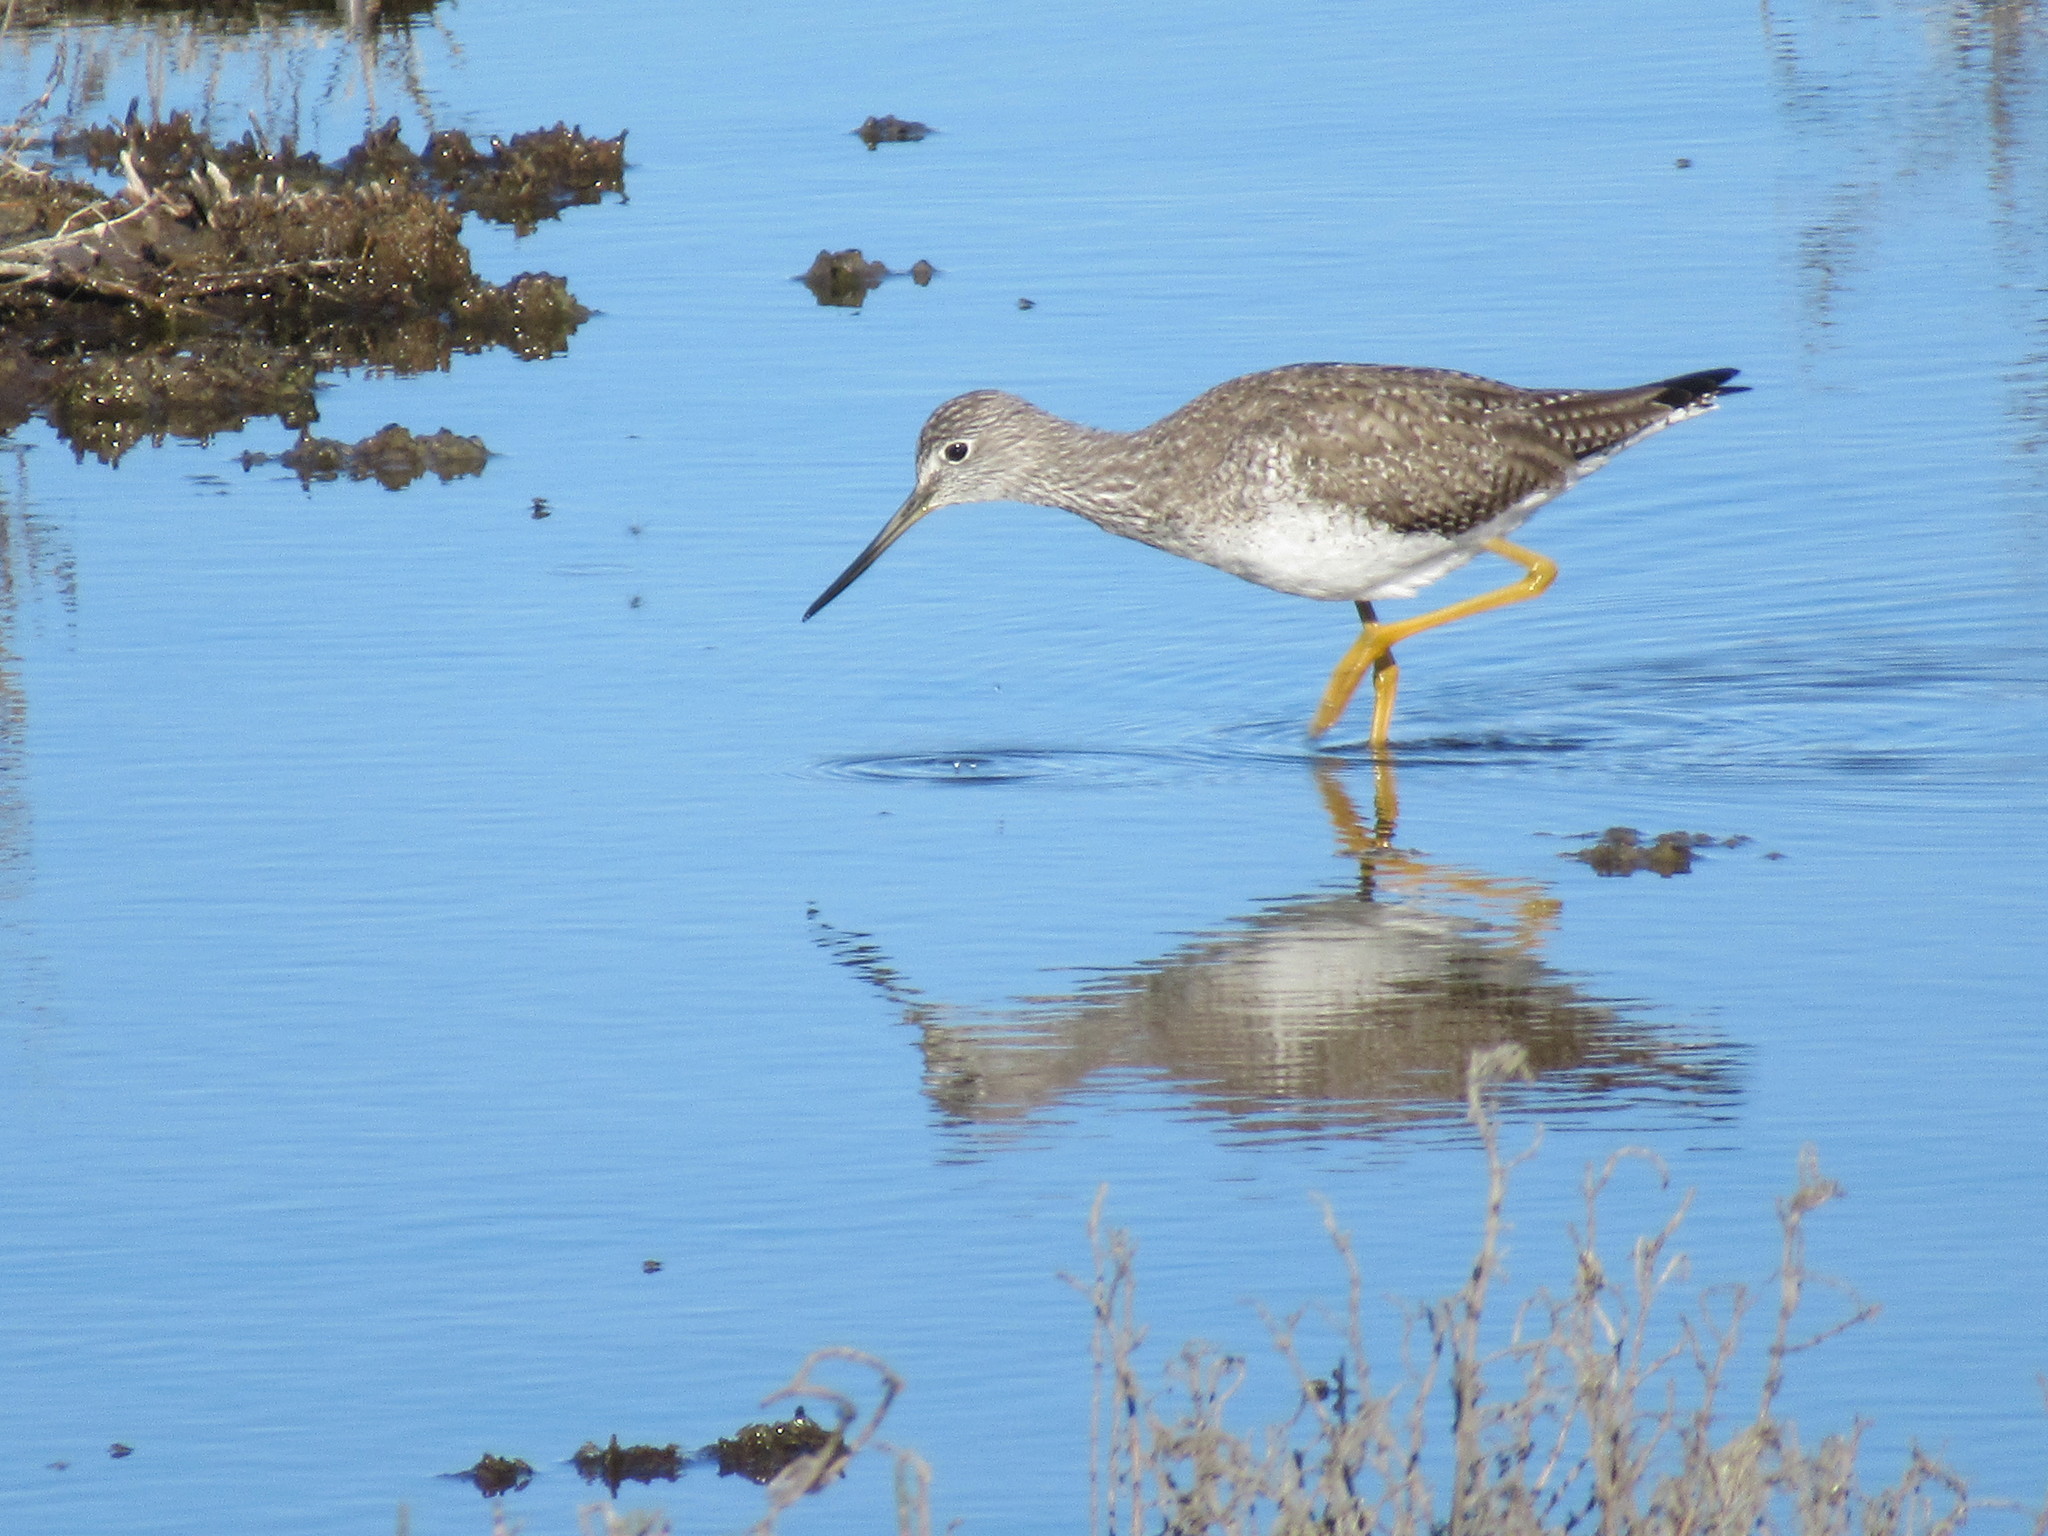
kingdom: Animalia
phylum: Chordata
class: Aves
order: Charadriiformes
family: Scolopacidae
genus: Tringa
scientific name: Tringa melanoleuca
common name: Greater yellowlegs
